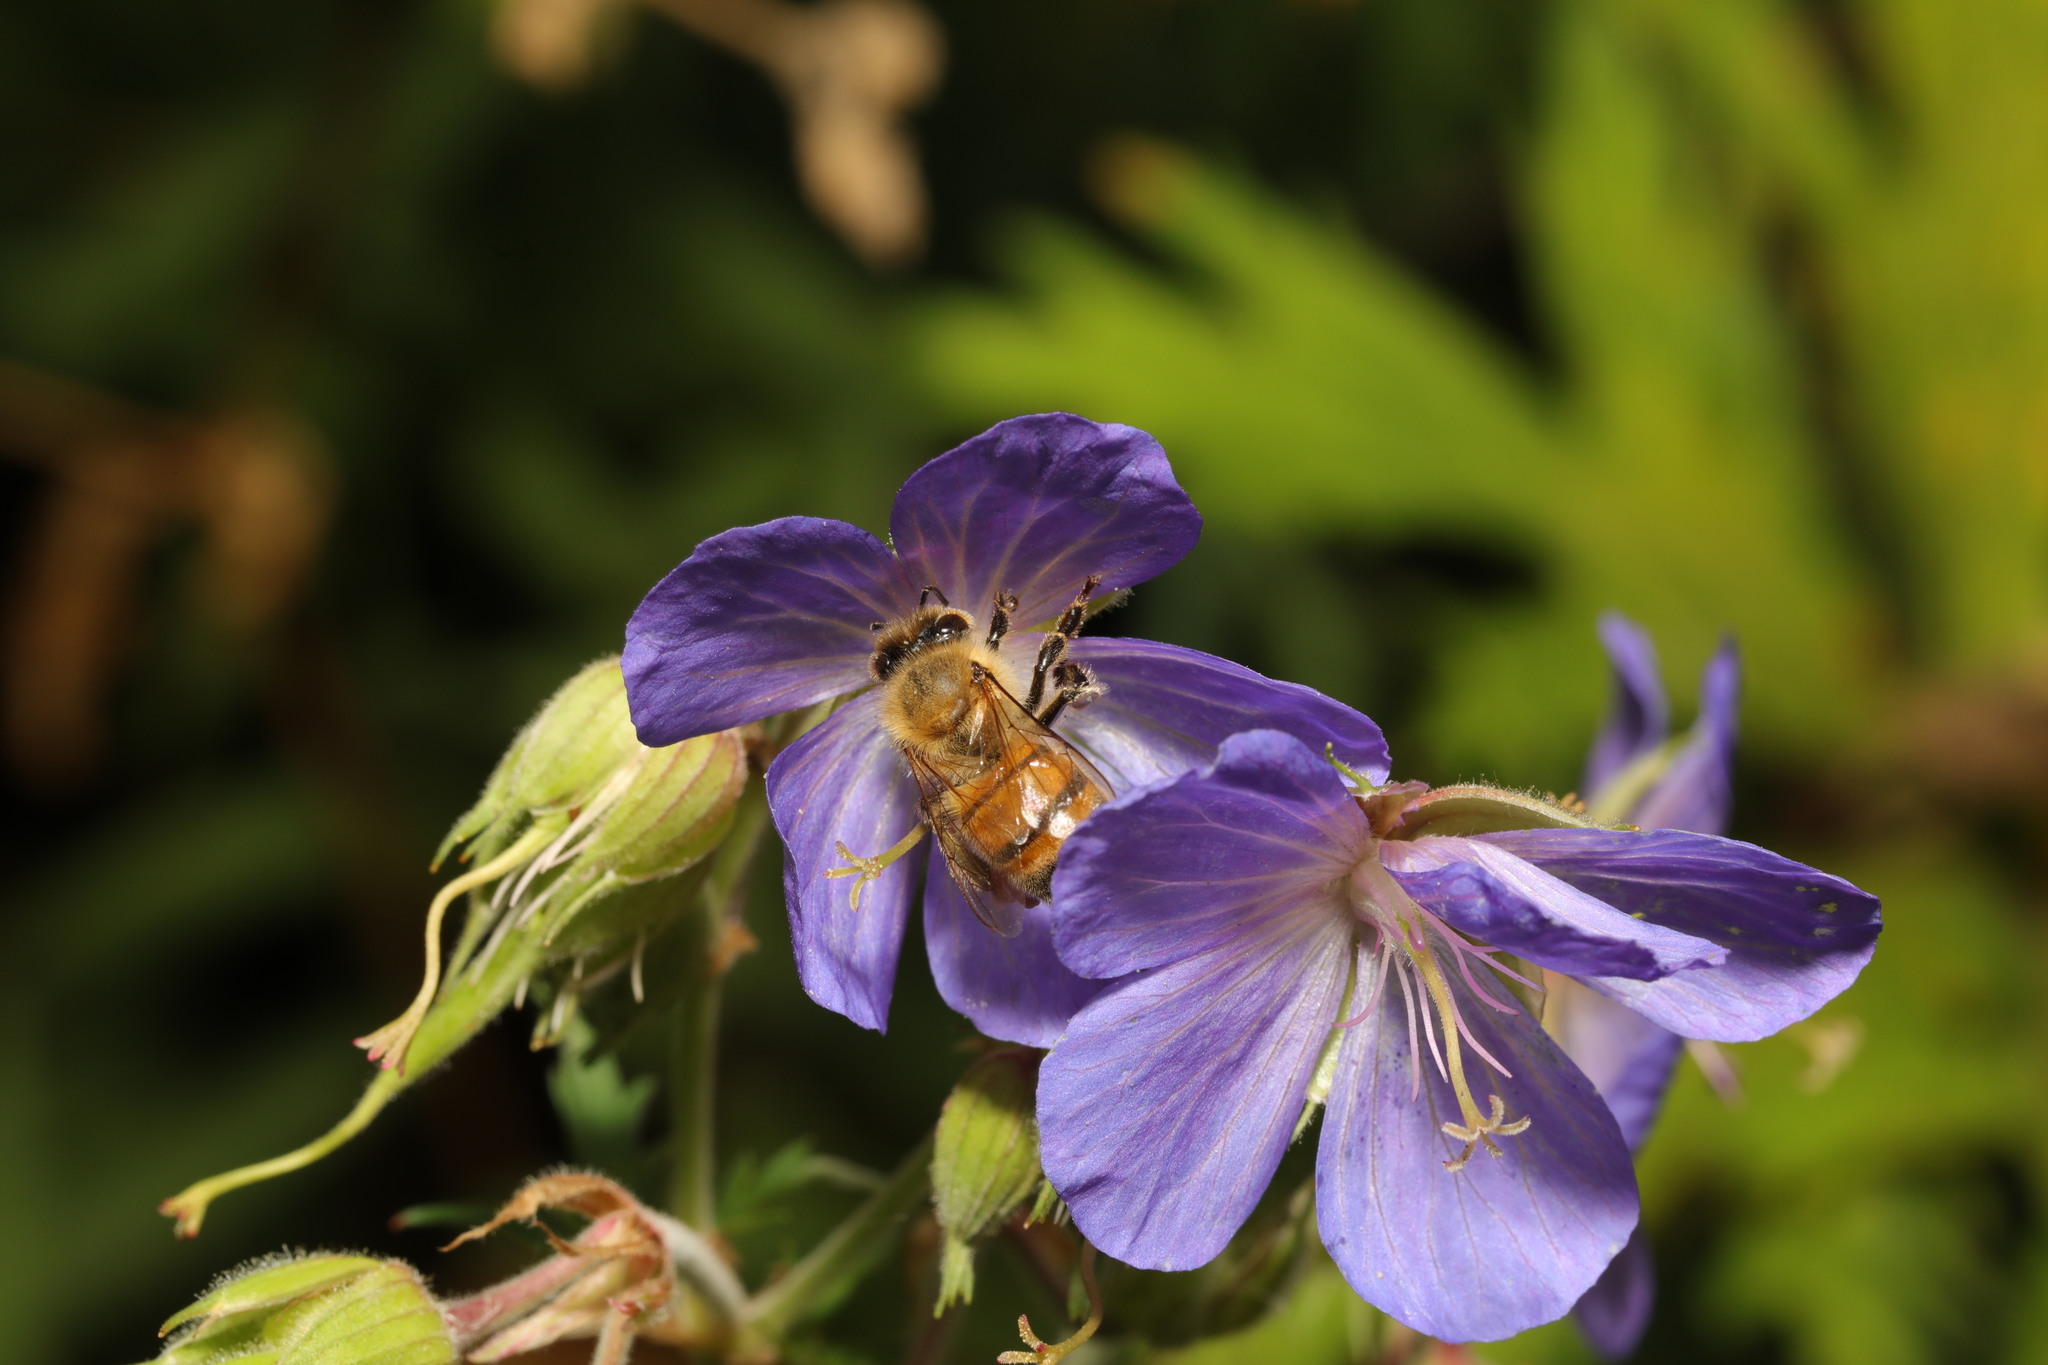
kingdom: Animalia
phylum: Arthropoda
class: Insecta
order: Hymenoptera
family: Apidae
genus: Apis
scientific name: Apis mellifera
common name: Honey bee
